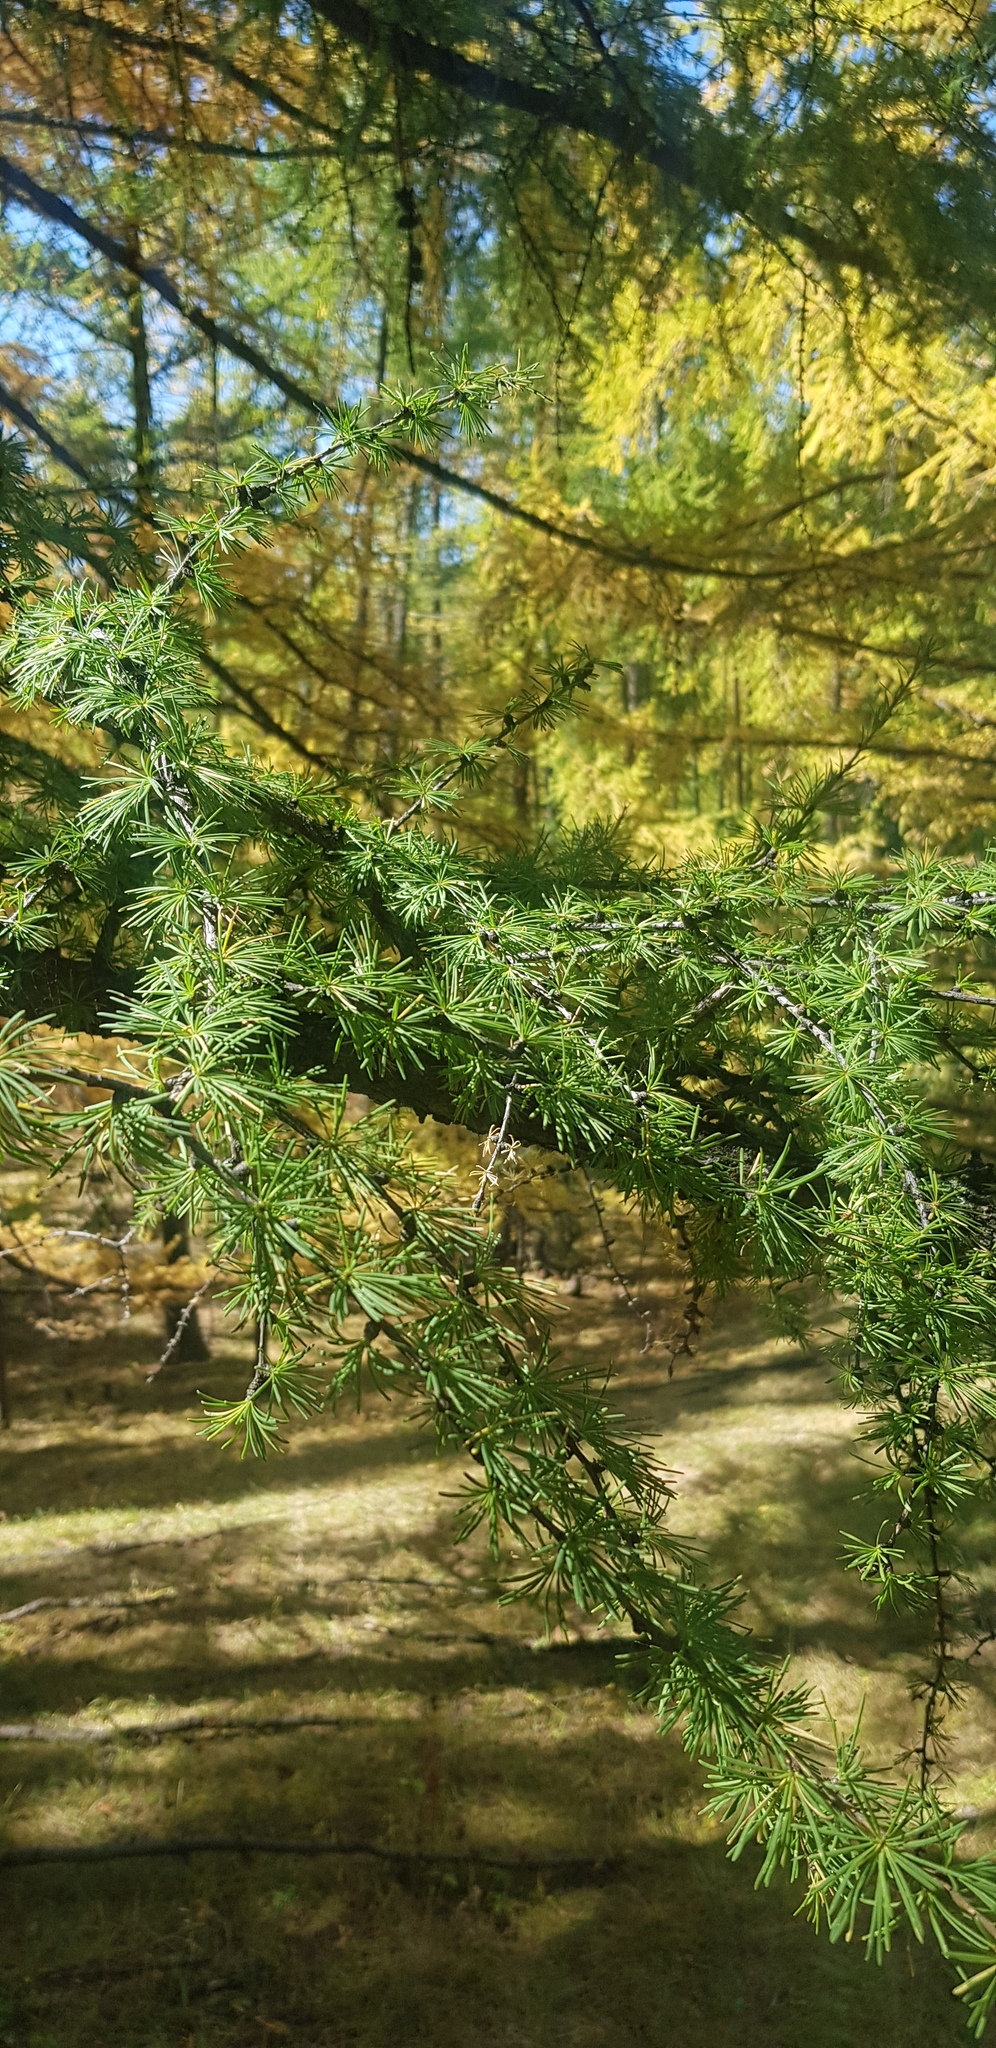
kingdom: Plantae
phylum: Tracheophyta
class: Pinopsida
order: Pinales
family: Pinaceae
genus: Larix
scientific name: Larix sibirica
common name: Siberian larch
